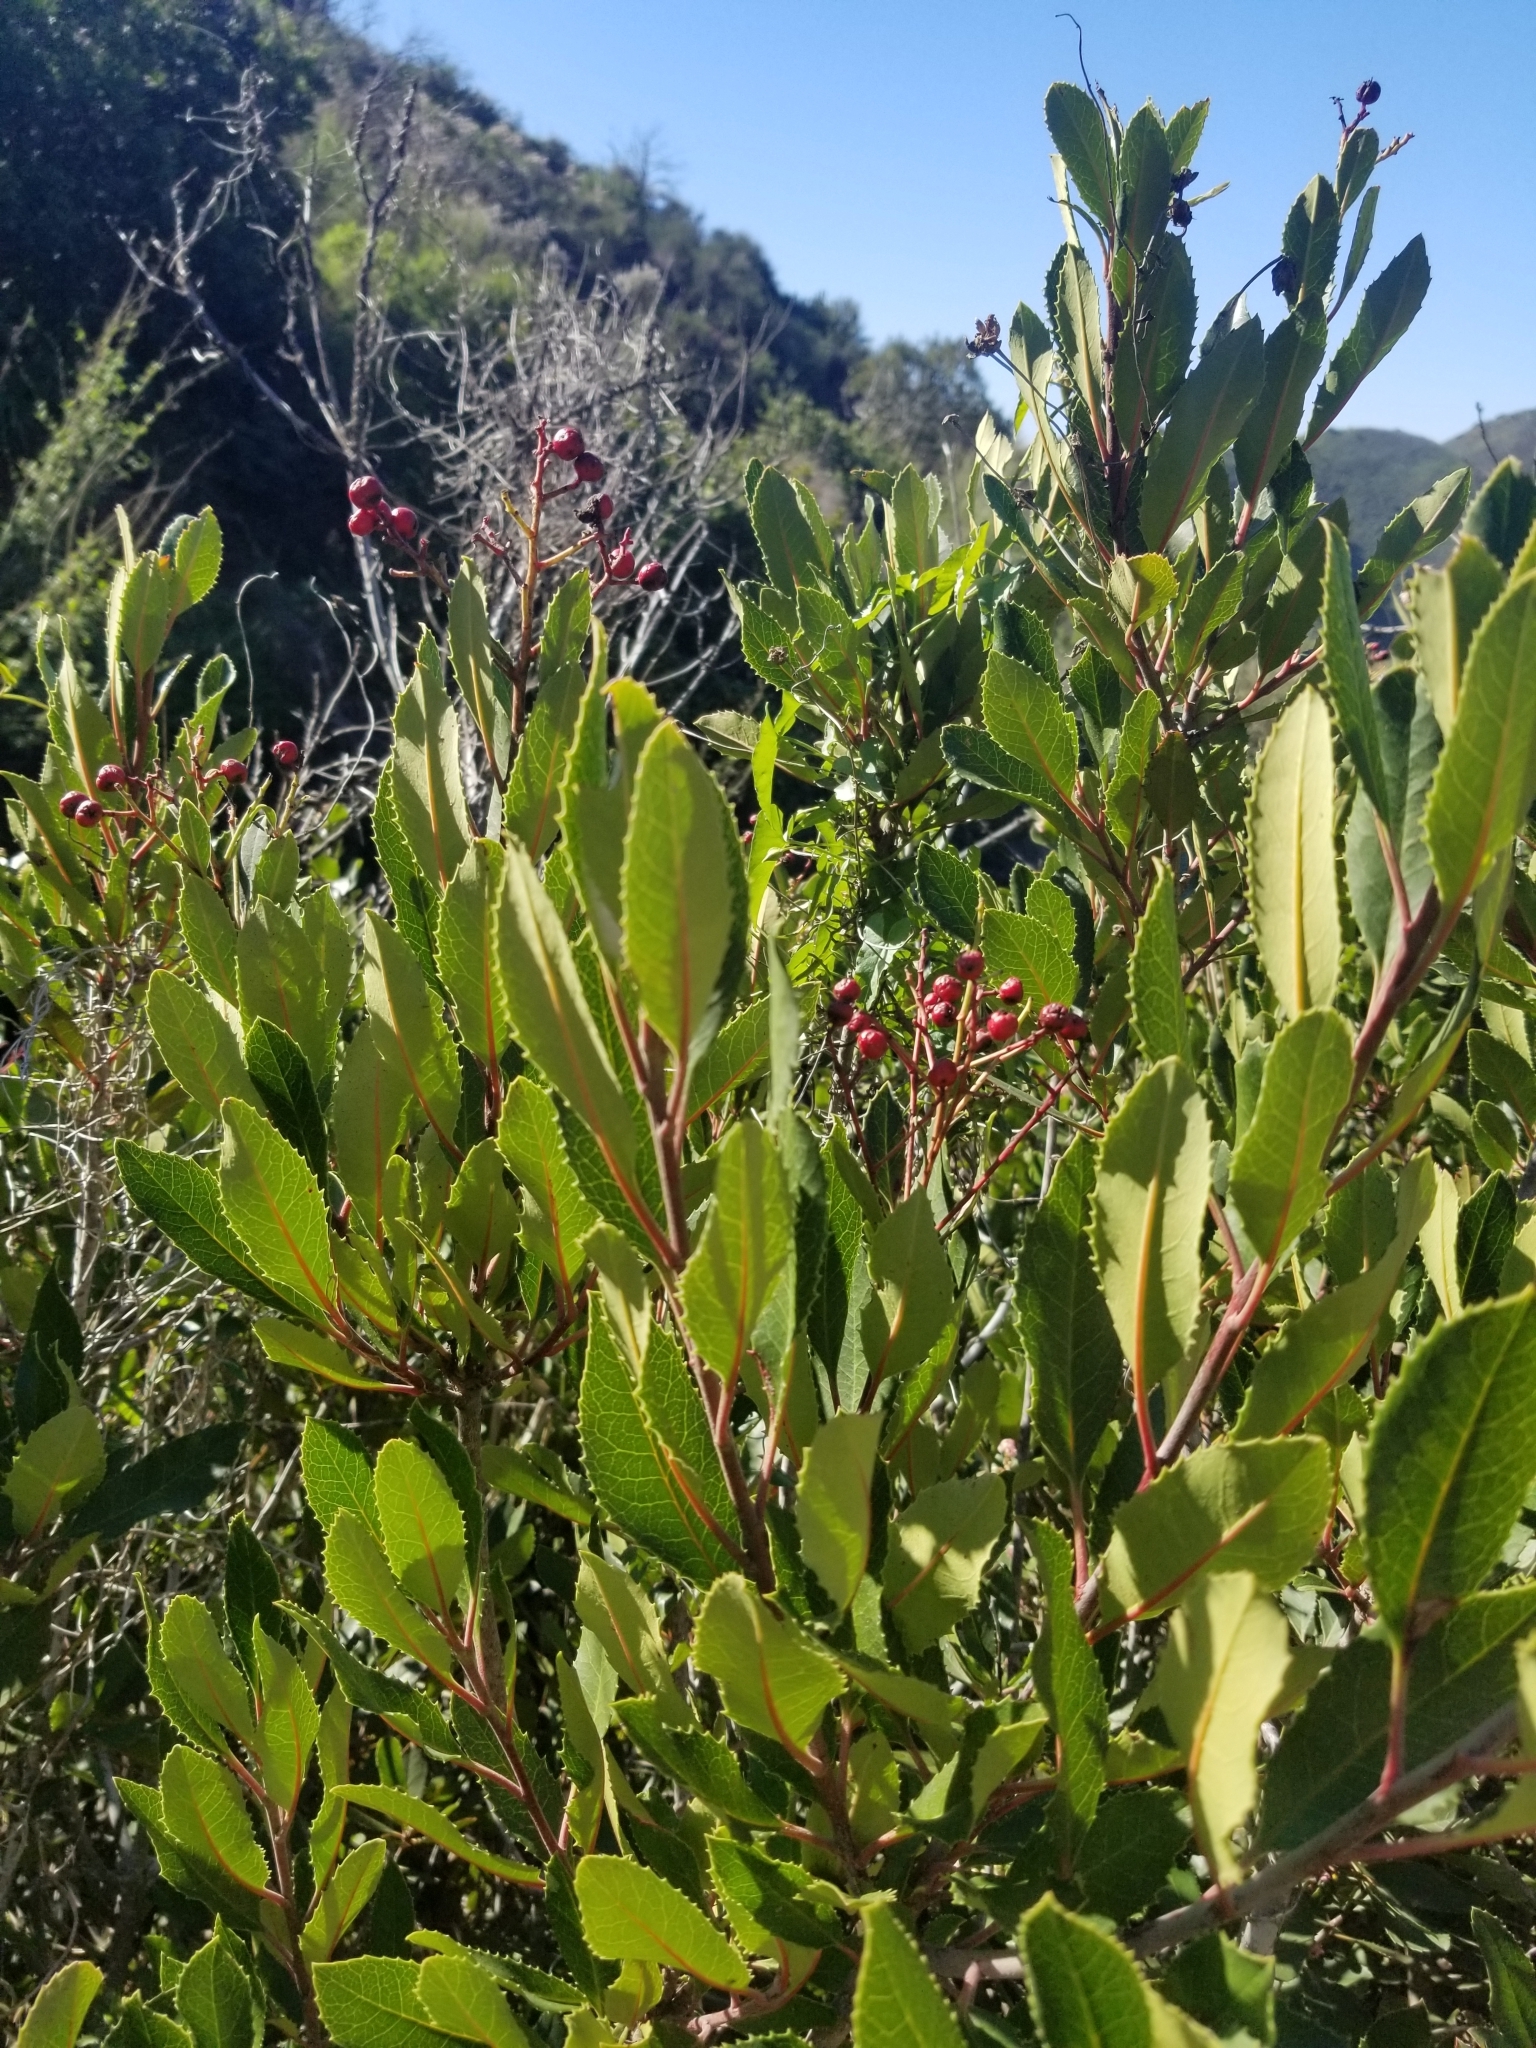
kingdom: Plantae
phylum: Tracheophyta
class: Magnoliopsida
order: Rosales
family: Rosaceae
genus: Heteromeles
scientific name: Heteromeles arbutifolia
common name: California-holly
